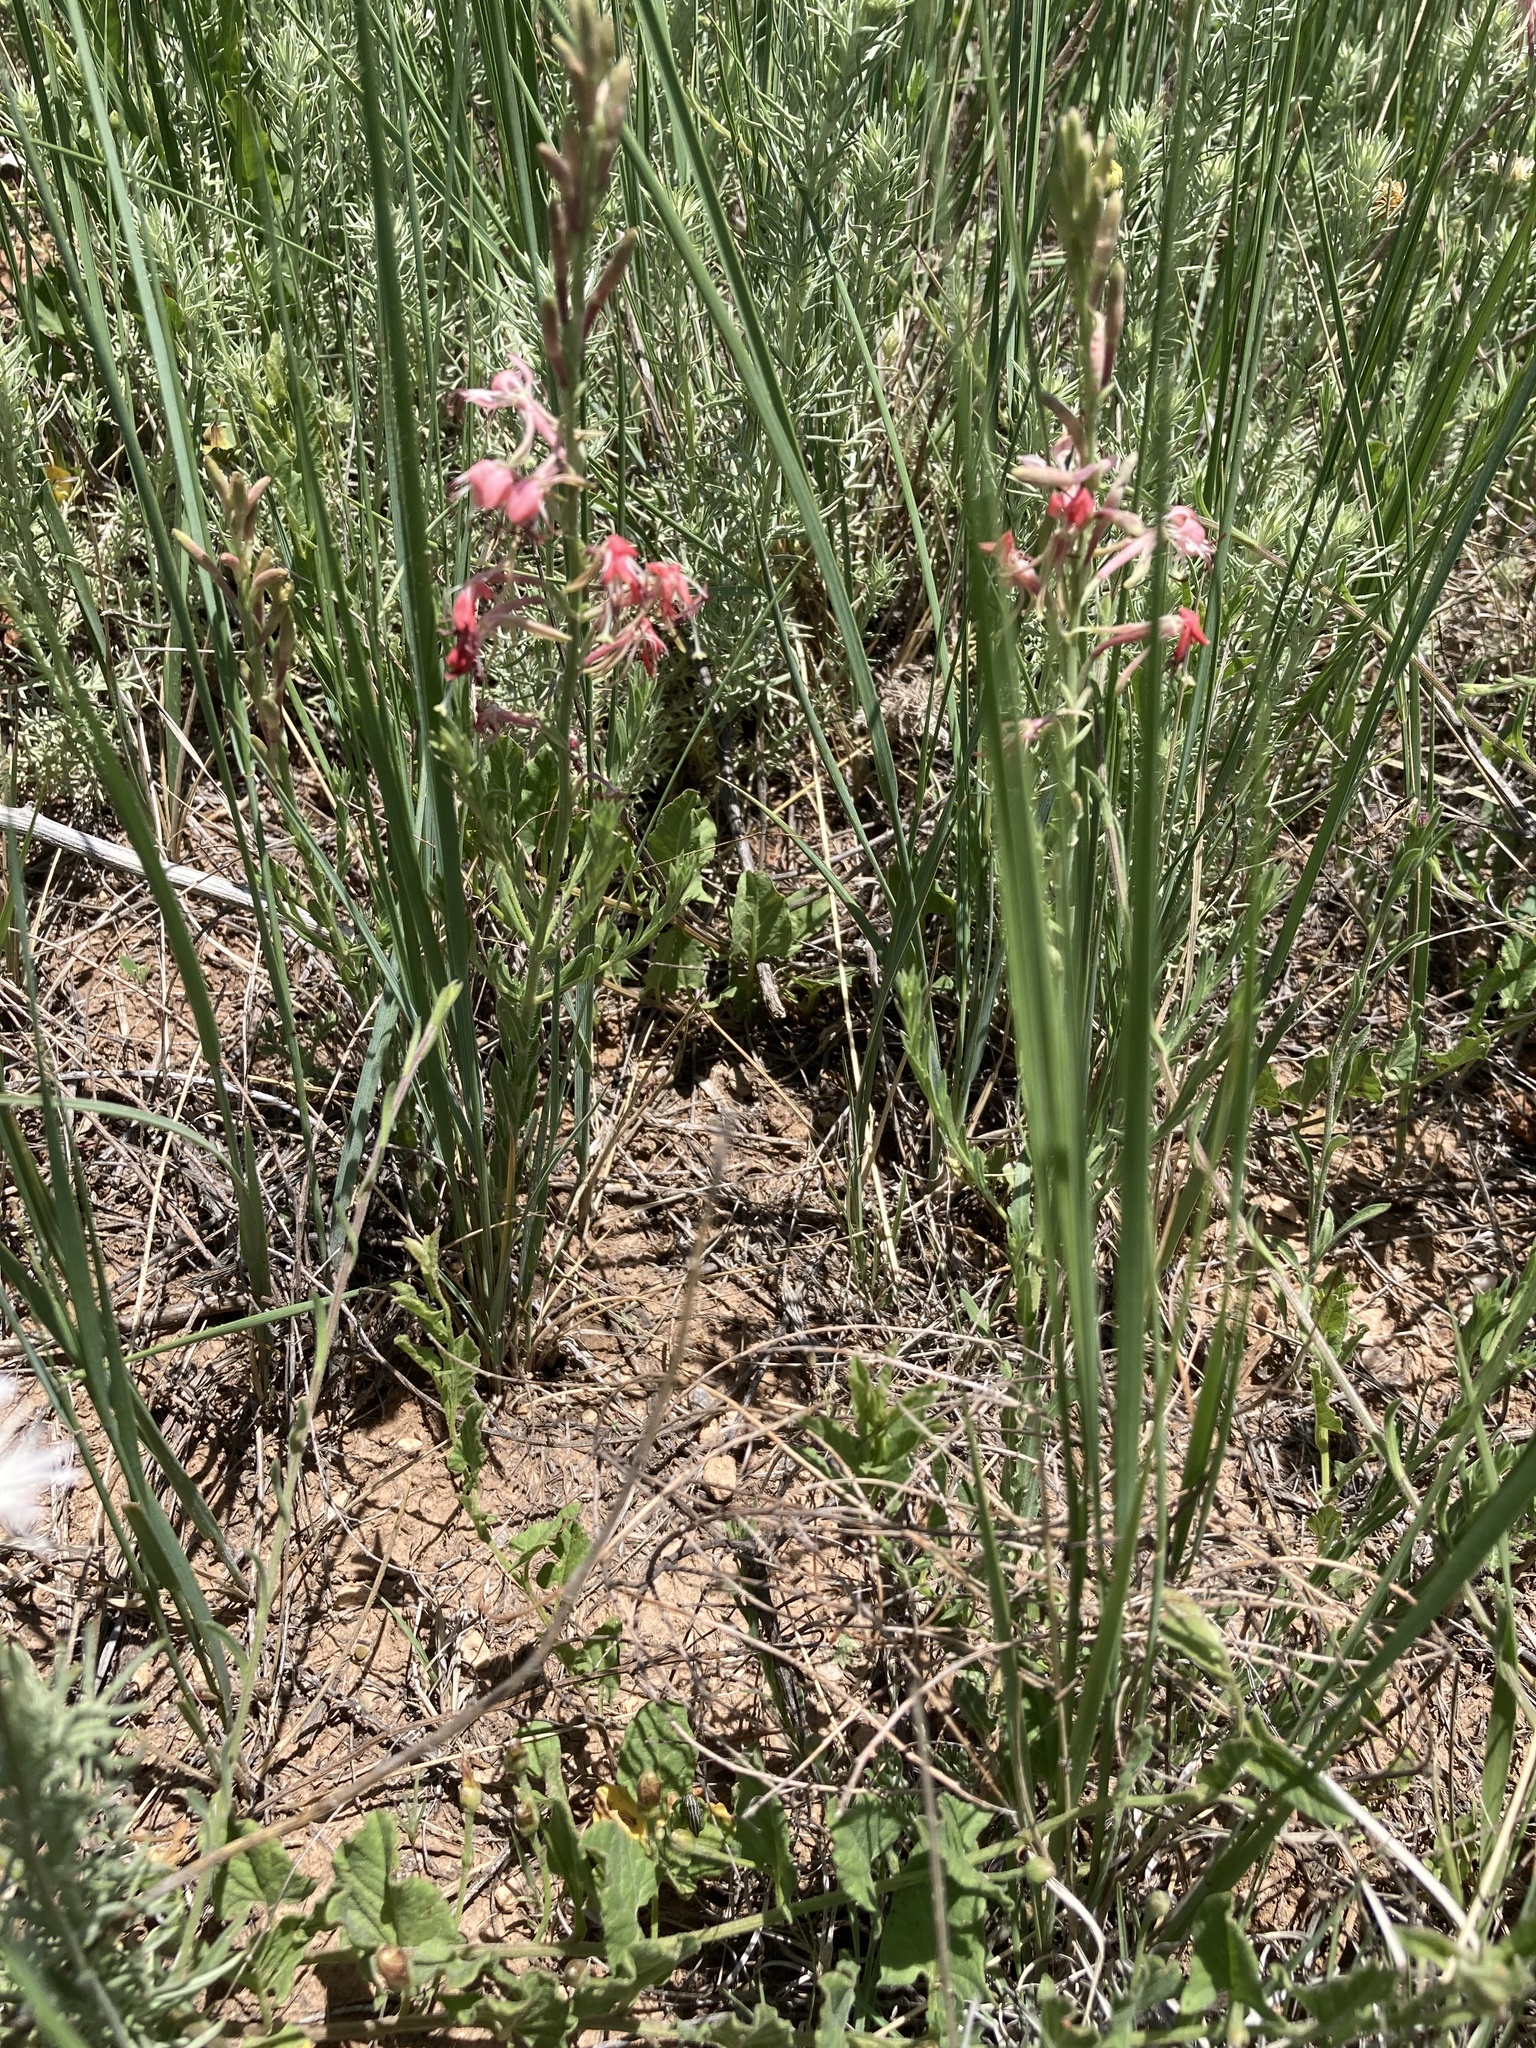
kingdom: Plantae
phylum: Tracheophyta
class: Magnoliopsida
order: Myrtales
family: Onagraceae
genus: Oenothera
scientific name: Oenothera suffrutescens
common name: Scarlet beeblossom
